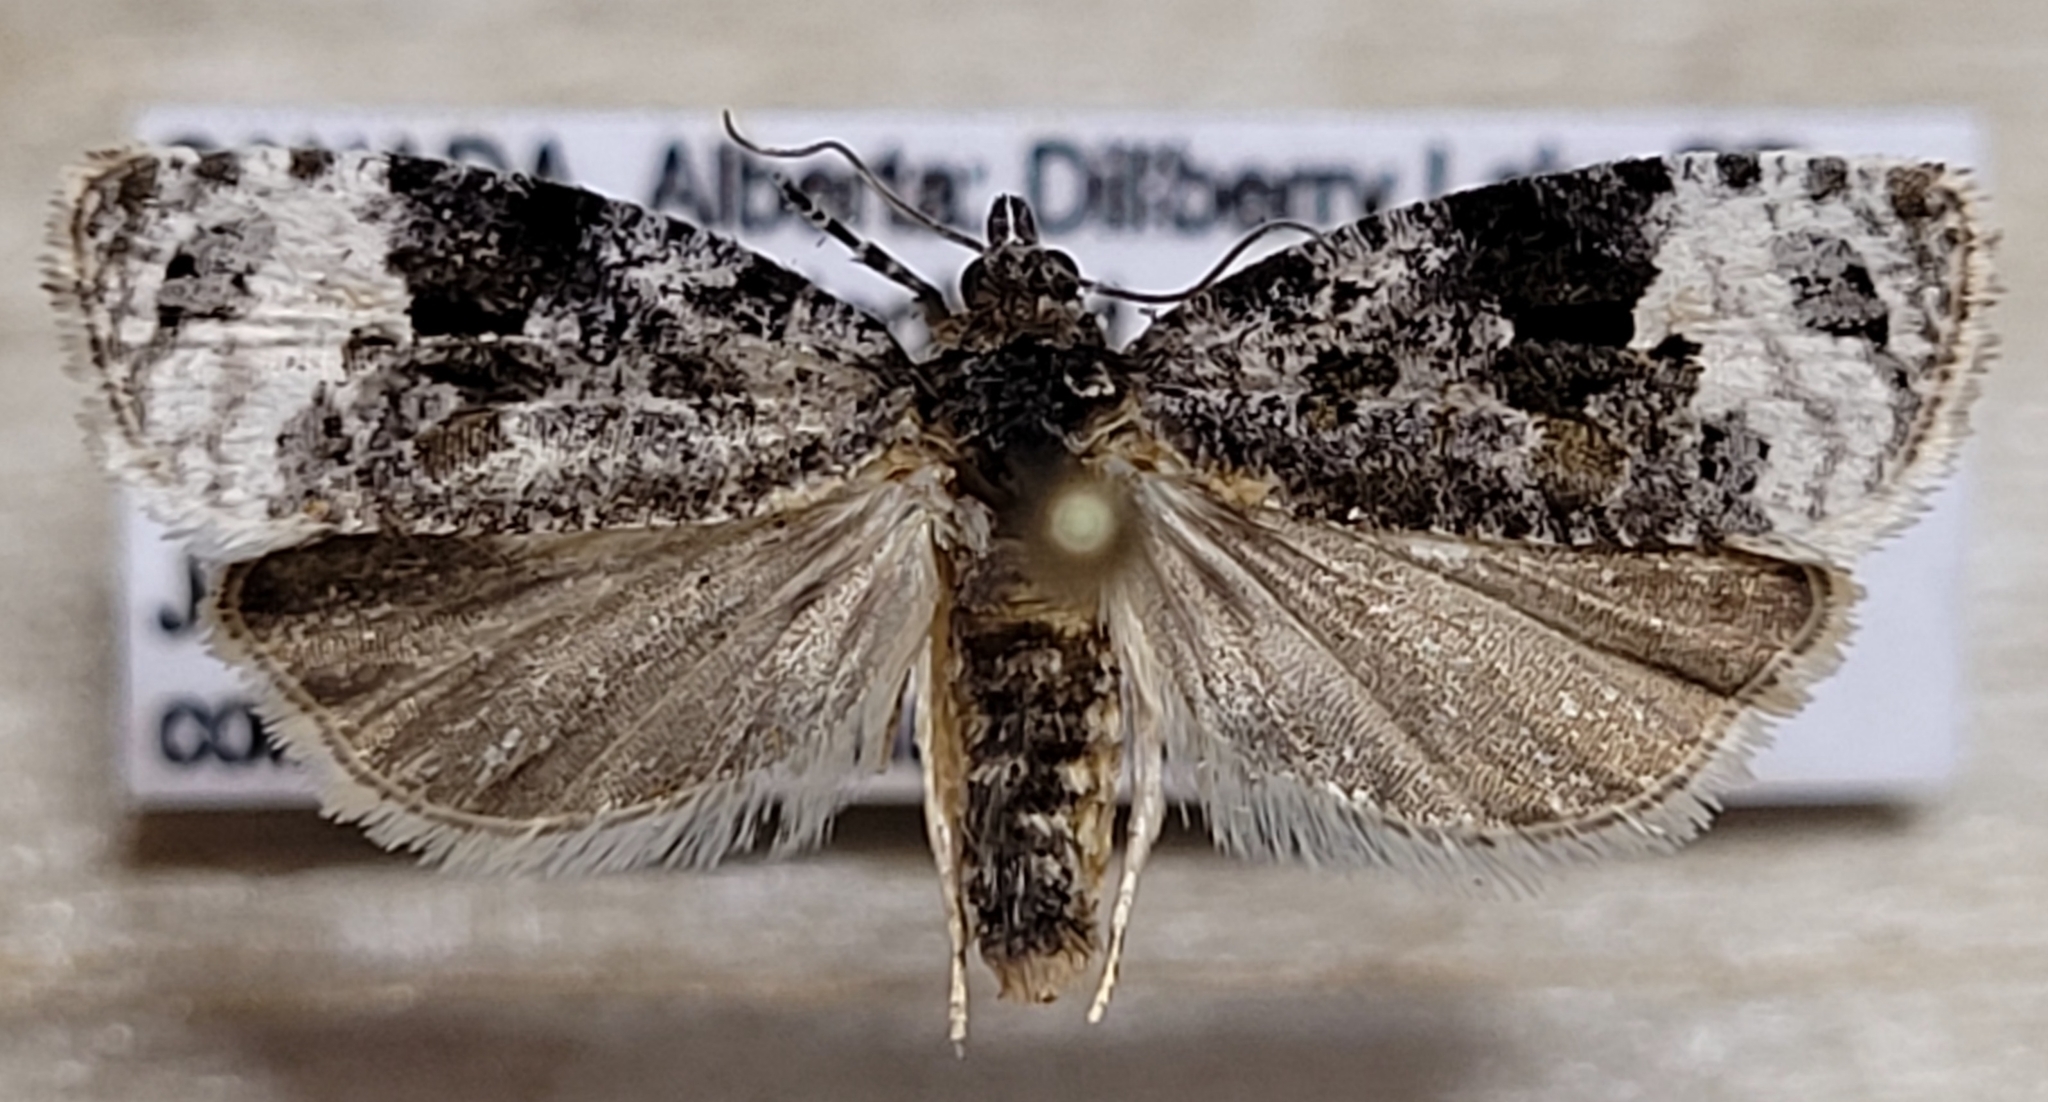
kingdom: Animalia
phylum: Arthropoda
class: Insecta
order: Lepidoptera
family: Tortricidae
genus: Apotomis
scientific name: Apotomis capreana
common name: Sallow marble
